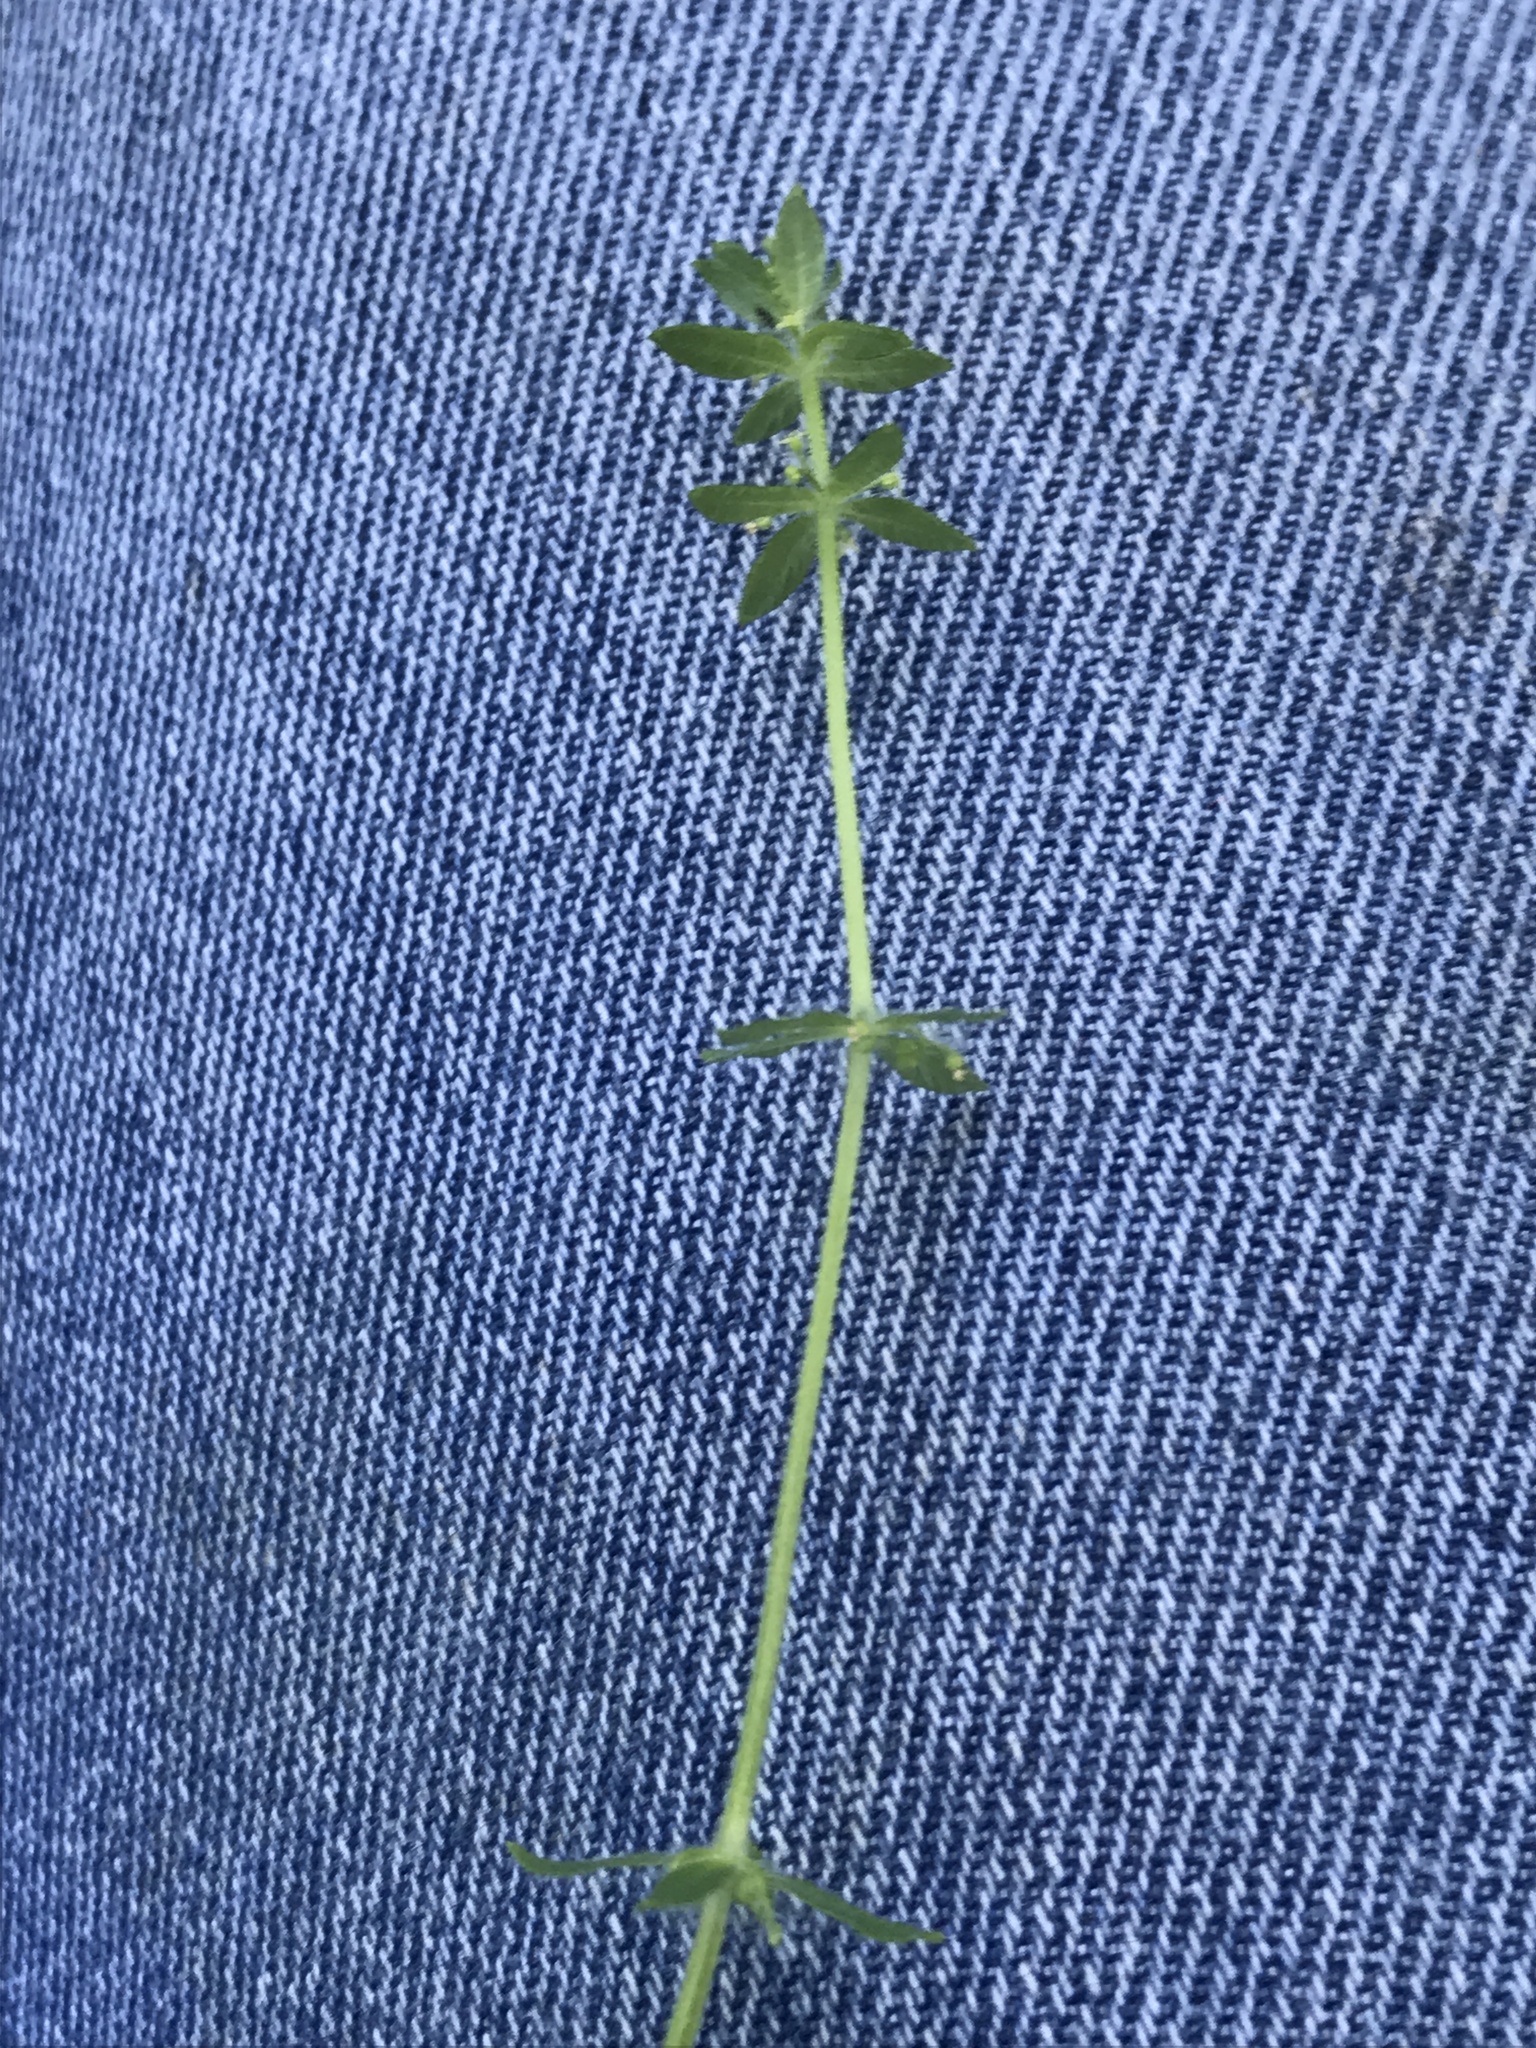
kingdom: Plantae
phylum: Tracheophyta
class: Magnoliopsida
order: Gentianales
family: Rubiaceae
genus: Cruciata
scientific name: Cruciata pedemontana
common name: Piedmont bedstraw
